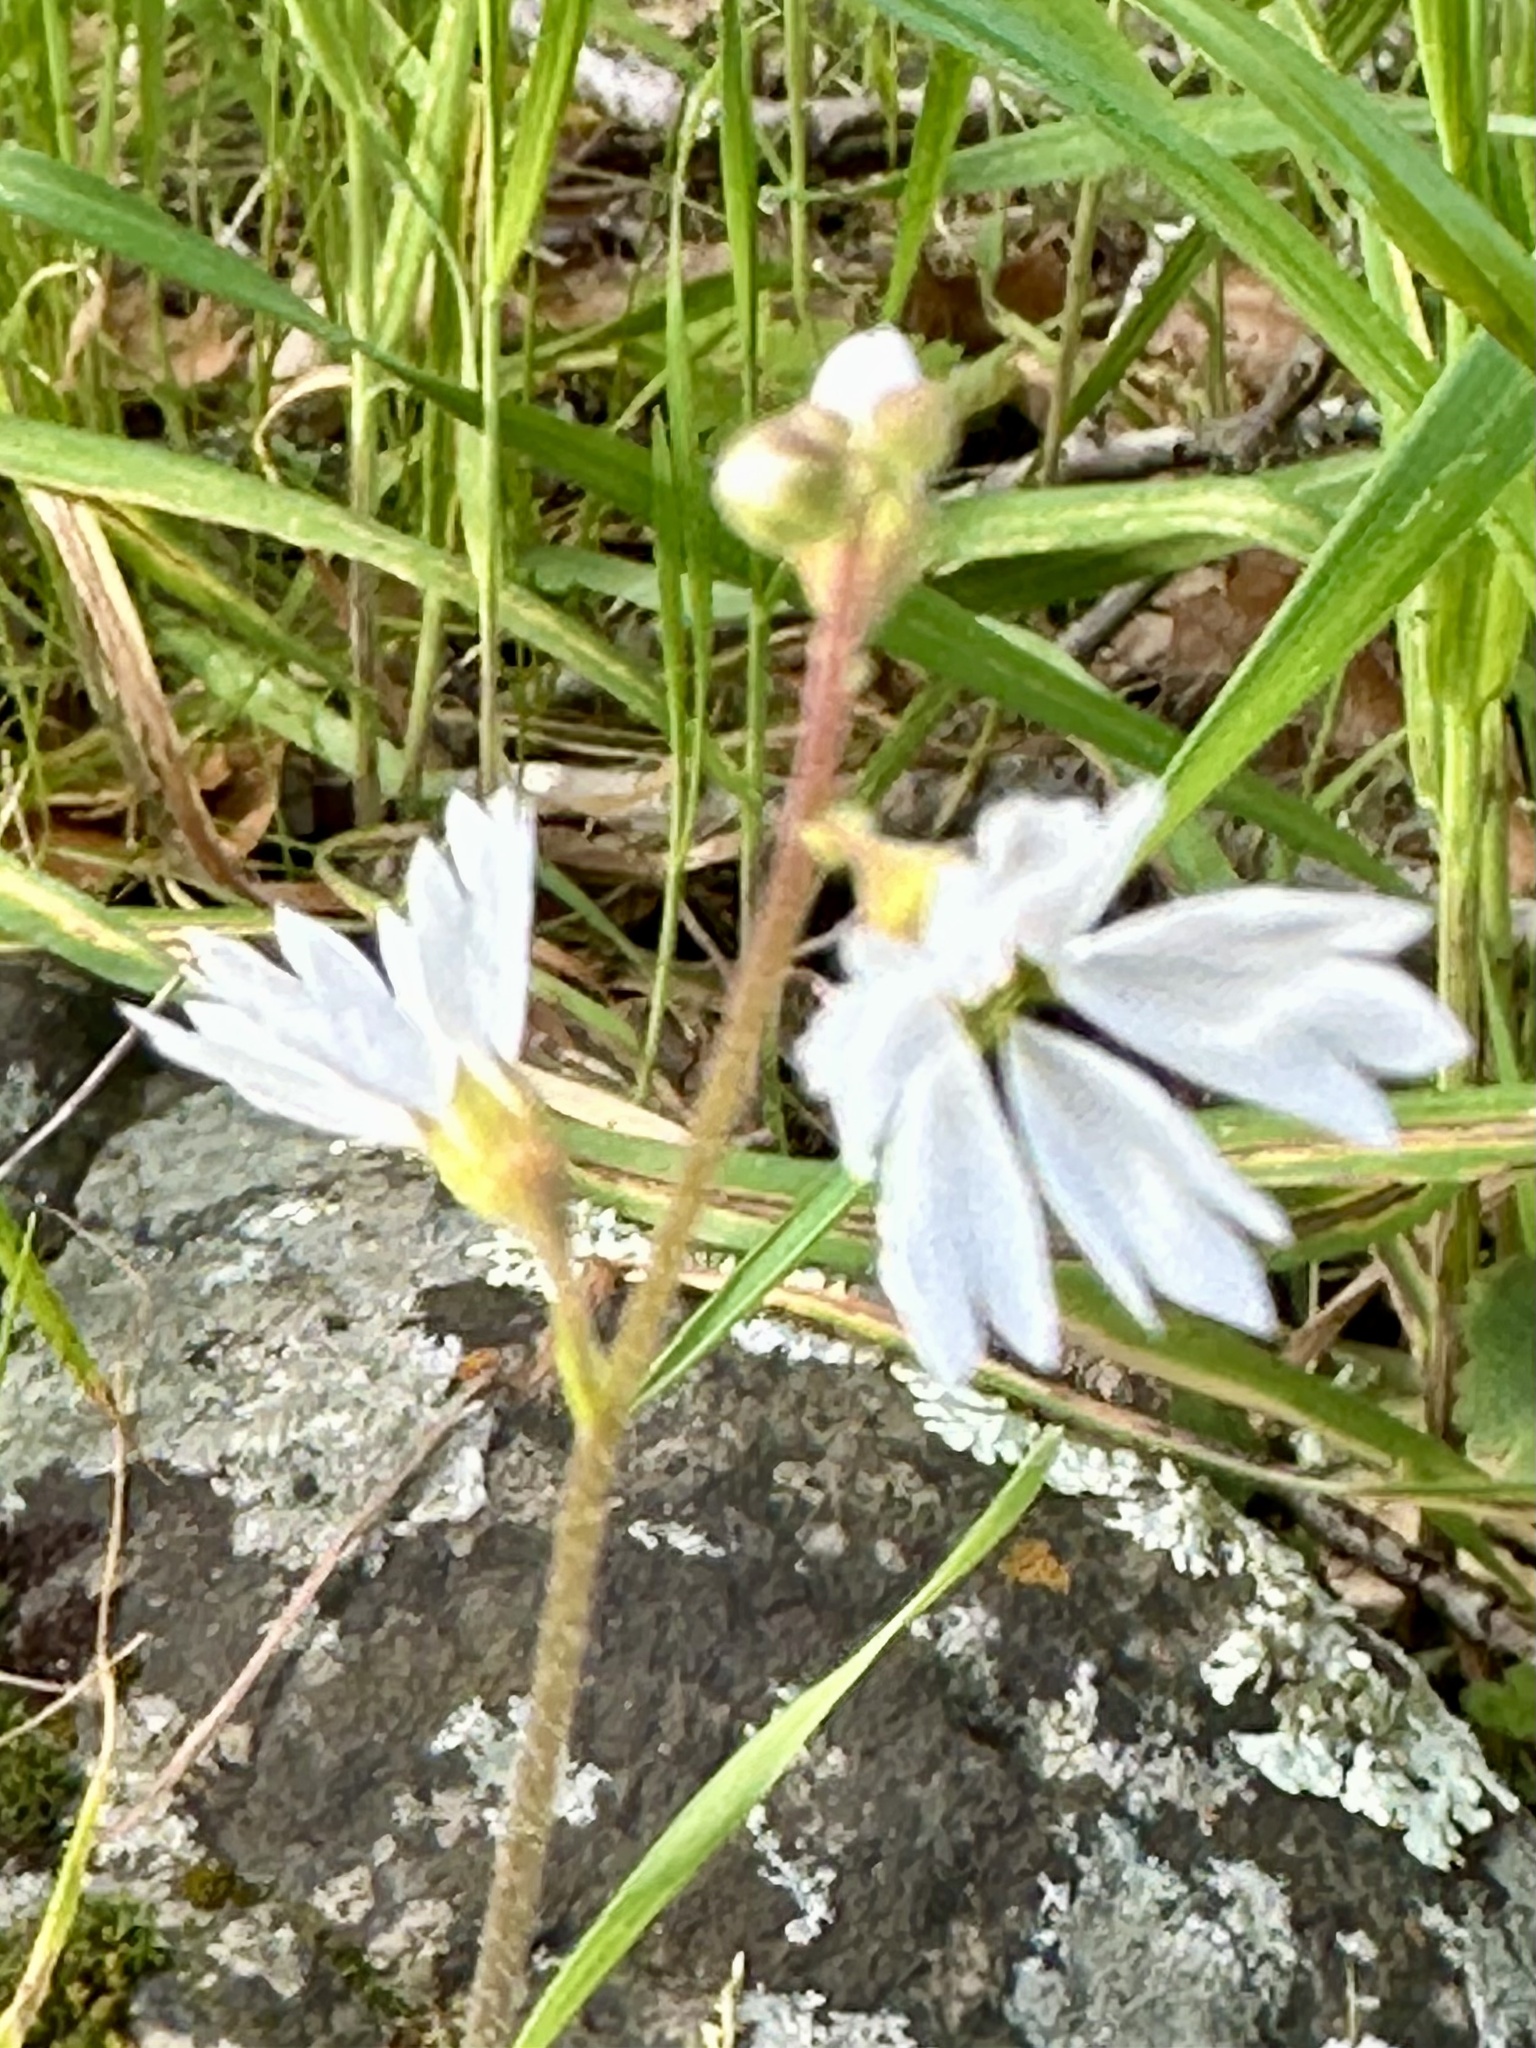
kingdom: Plantae
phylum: Tracheophyta
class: Magnoliopsida
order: Saxifragales
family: Saxifragaceae
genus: Lithophragma
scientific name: Lithophragma affine
